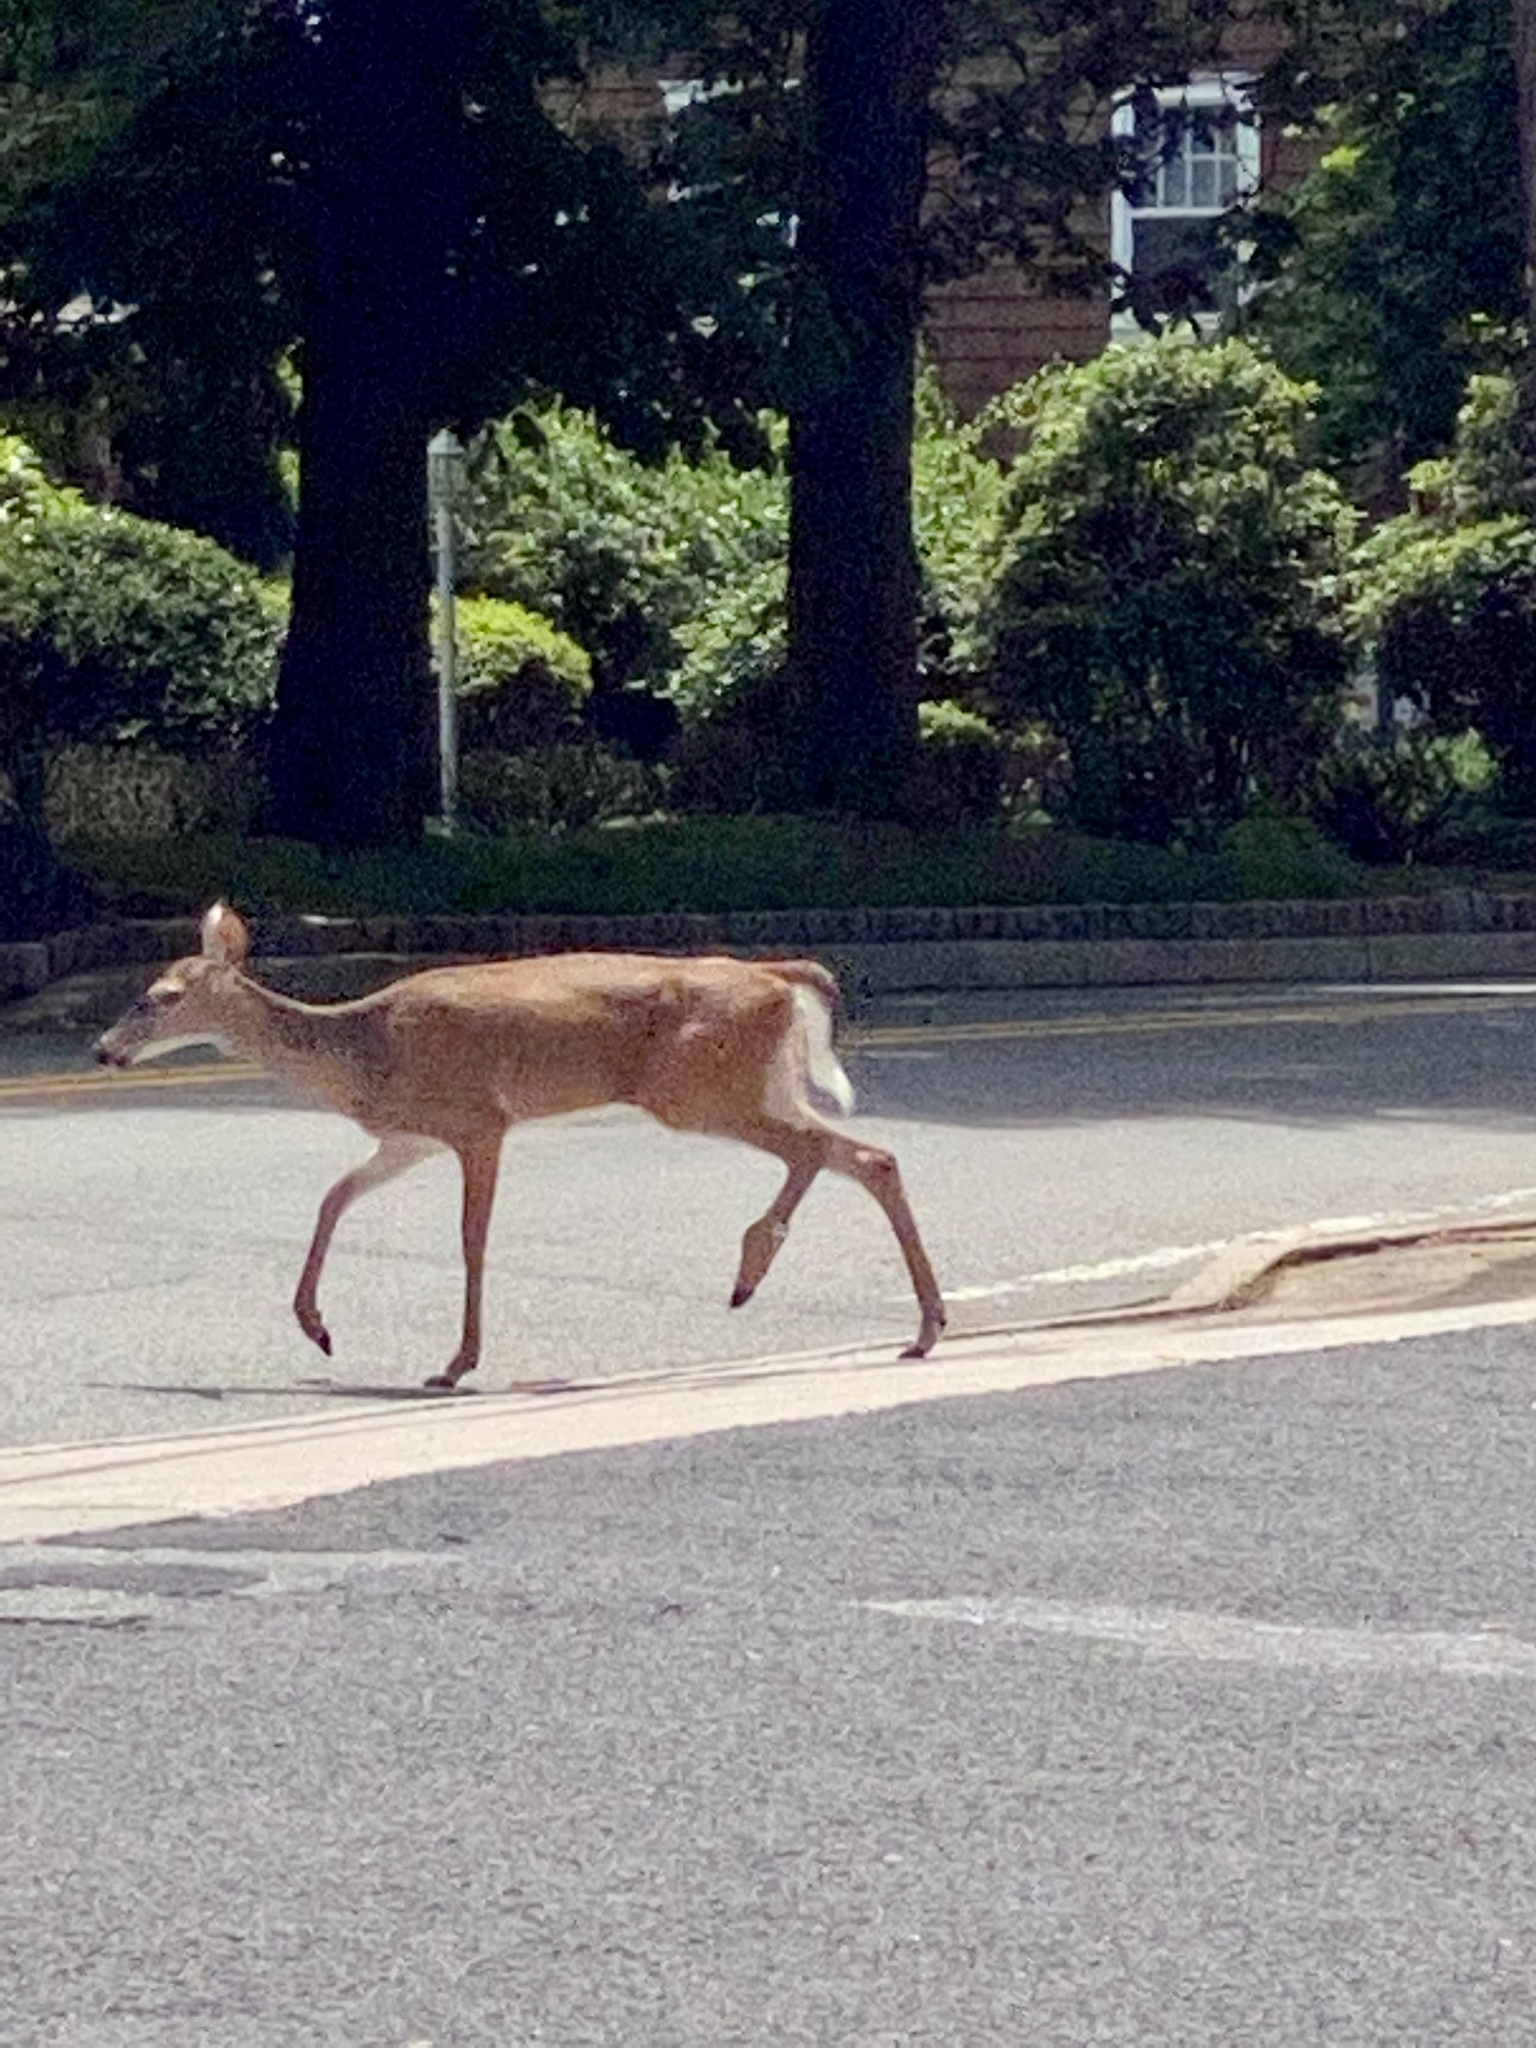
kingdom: Animalia
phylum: Chordata
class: Mammalia
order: Artiodactyla
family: Cervidae
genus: Odocoileus
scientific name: Odocoileus virginianus
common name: White-tailed deer
